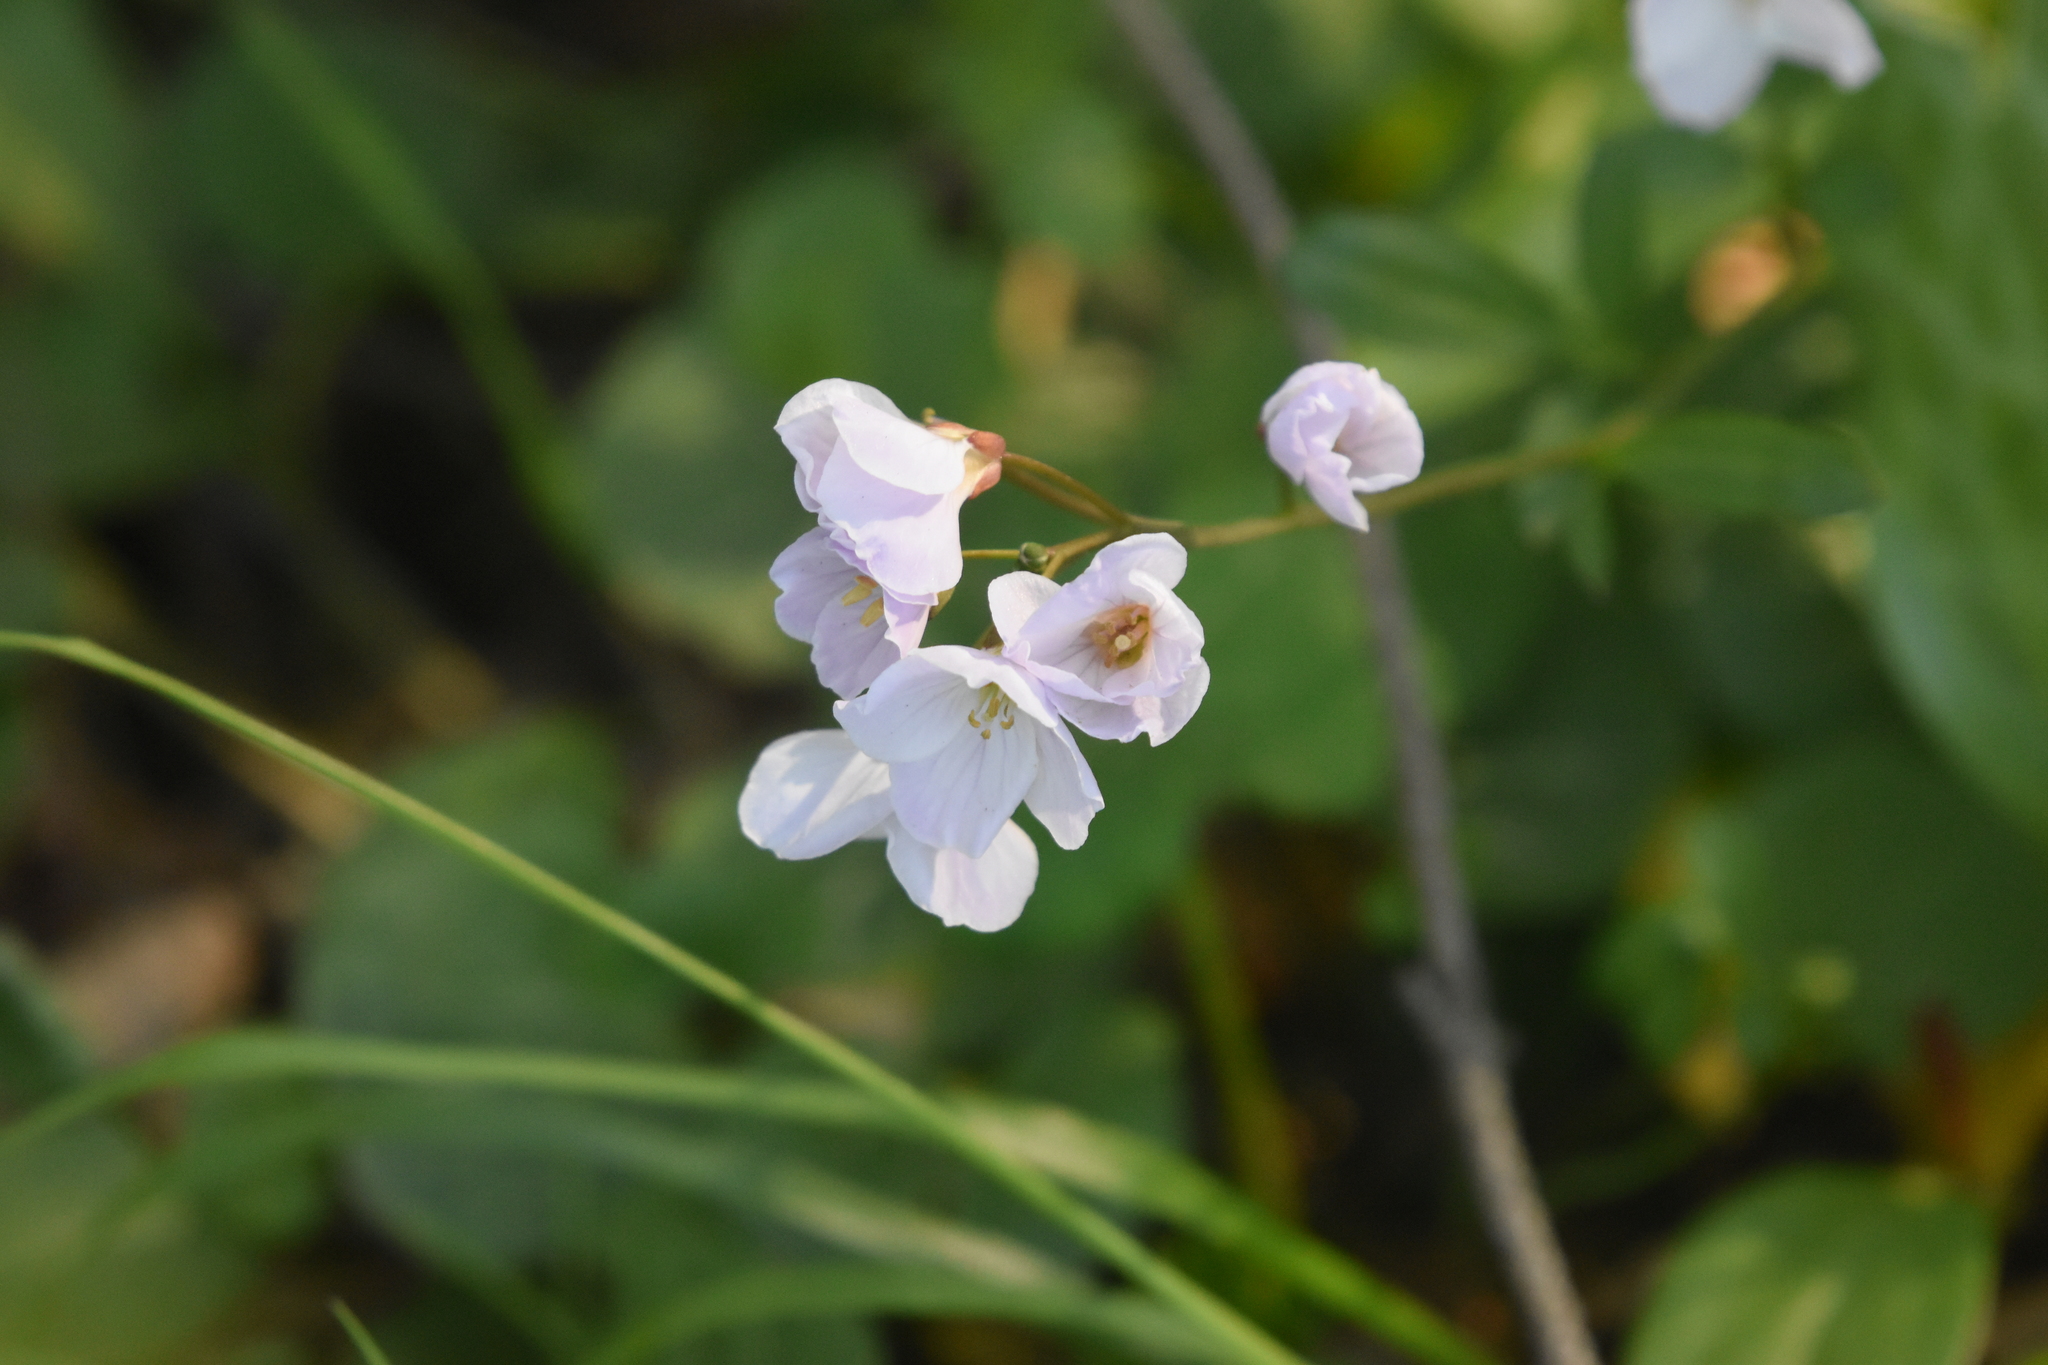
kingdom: Plantae
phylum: Tracheophyta
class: Magnoliopsida
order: Brassicales
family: Brassicaceae
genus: Cardamine
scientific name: Cardamine nuttallii
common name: Nuttall's toothwort
